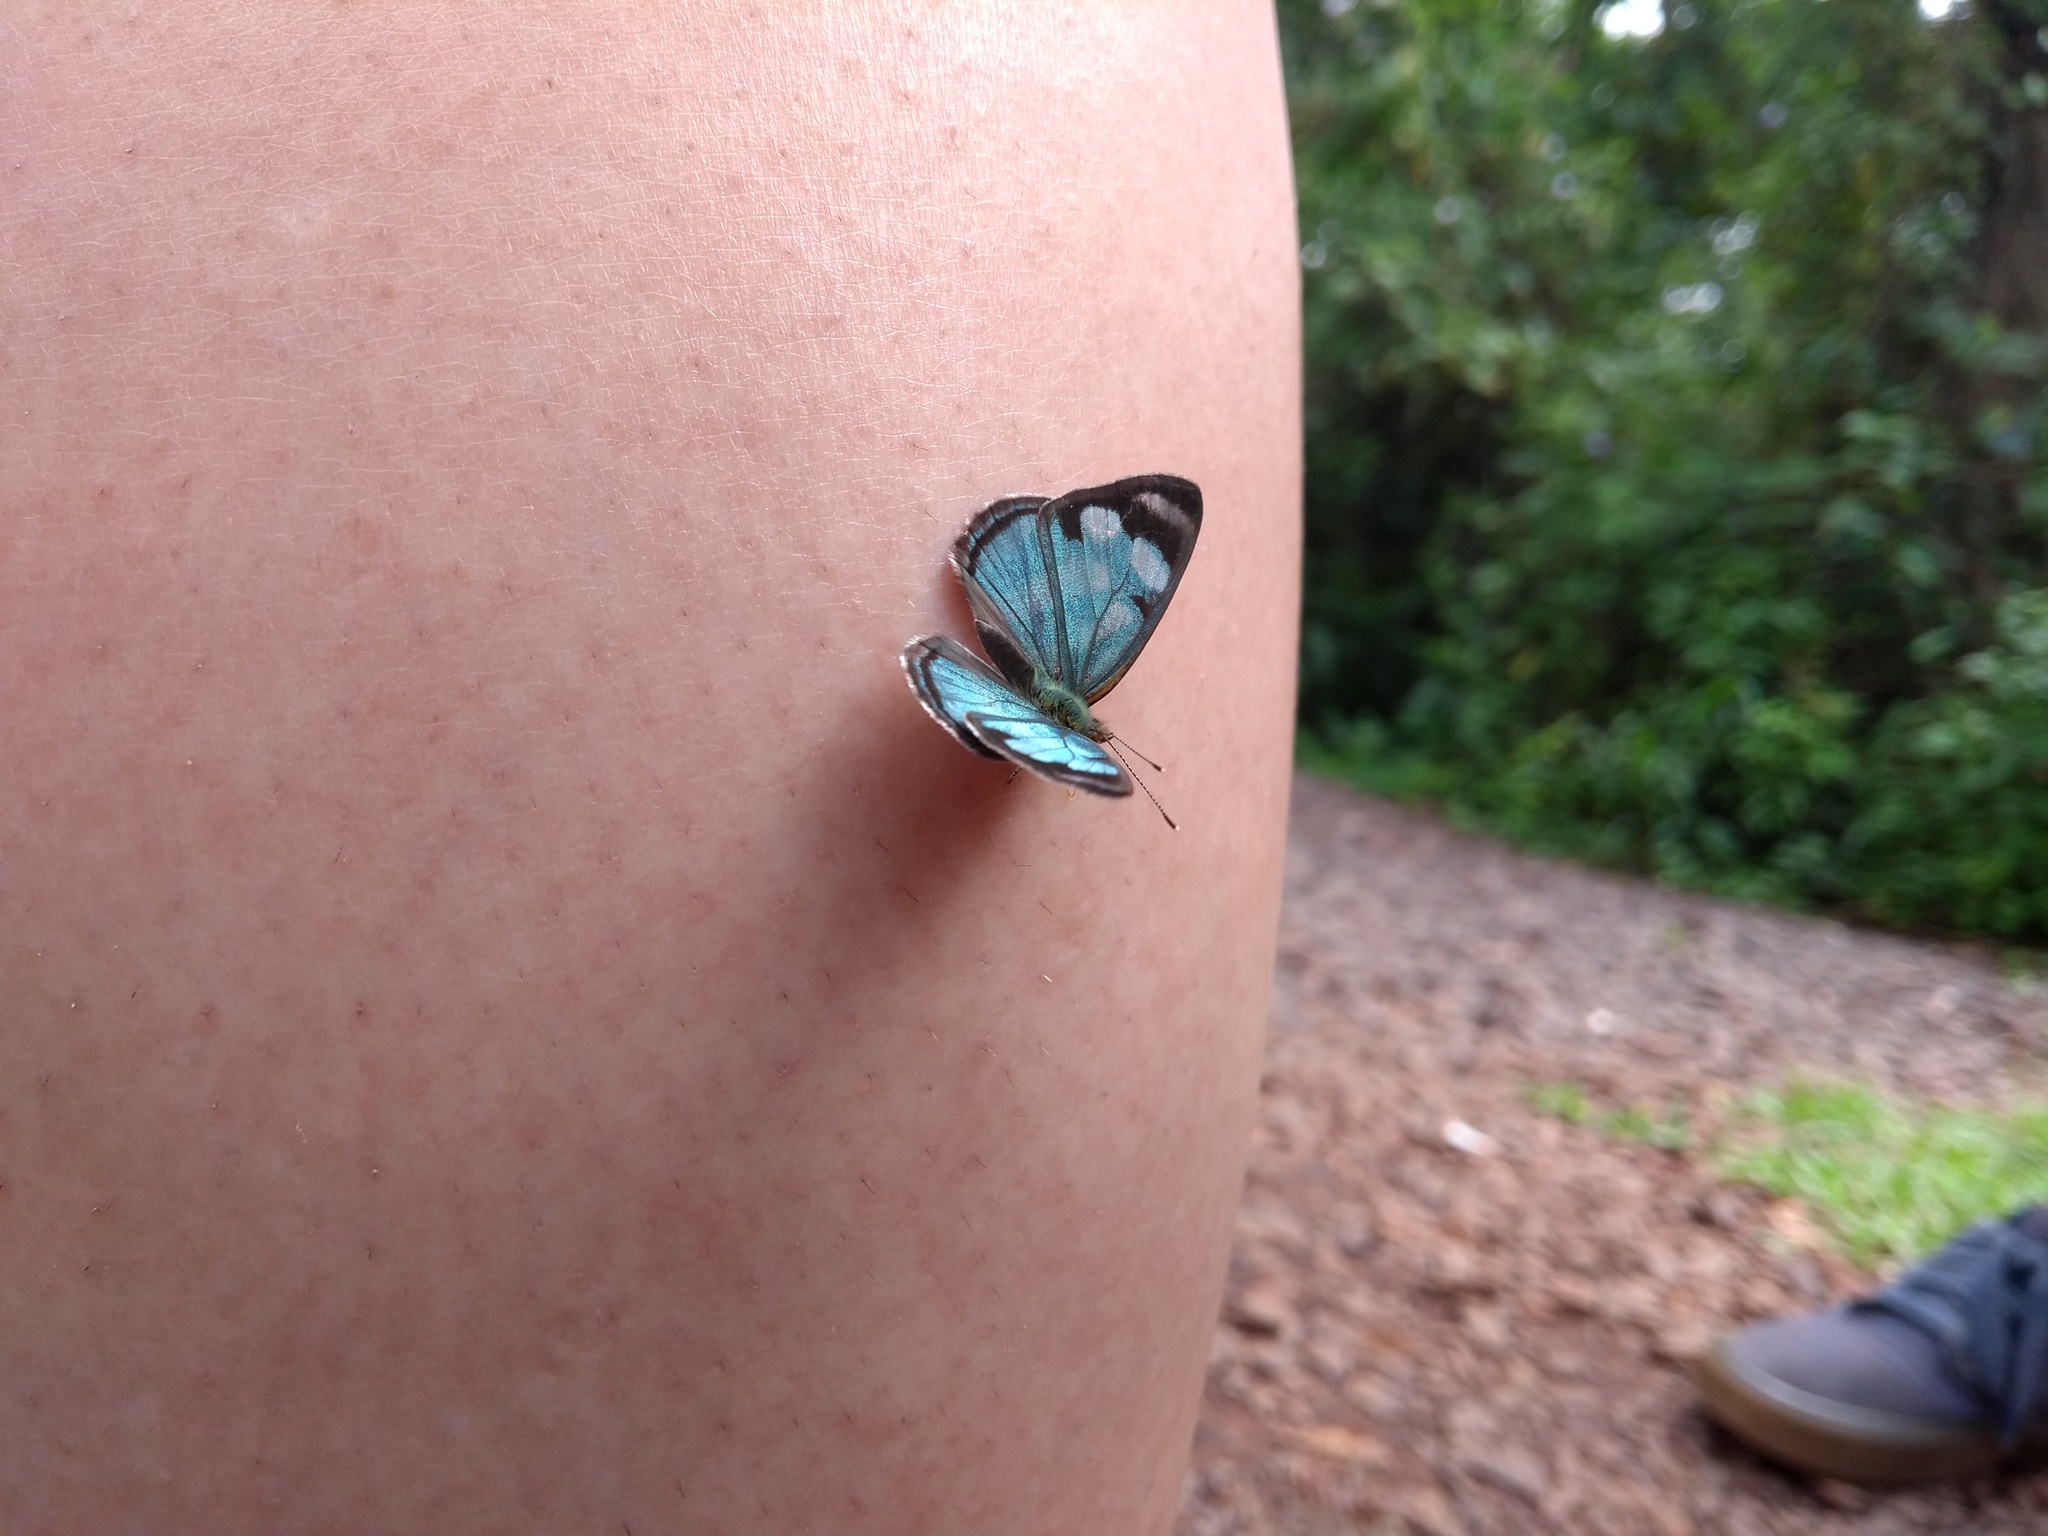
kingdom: Animalia
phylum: Arthropoda
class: Insecta
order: Lepidoptera
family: Nymphalidae
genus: Dynamine
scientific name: Dynamine artemisia
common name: Small-eyed sailor
